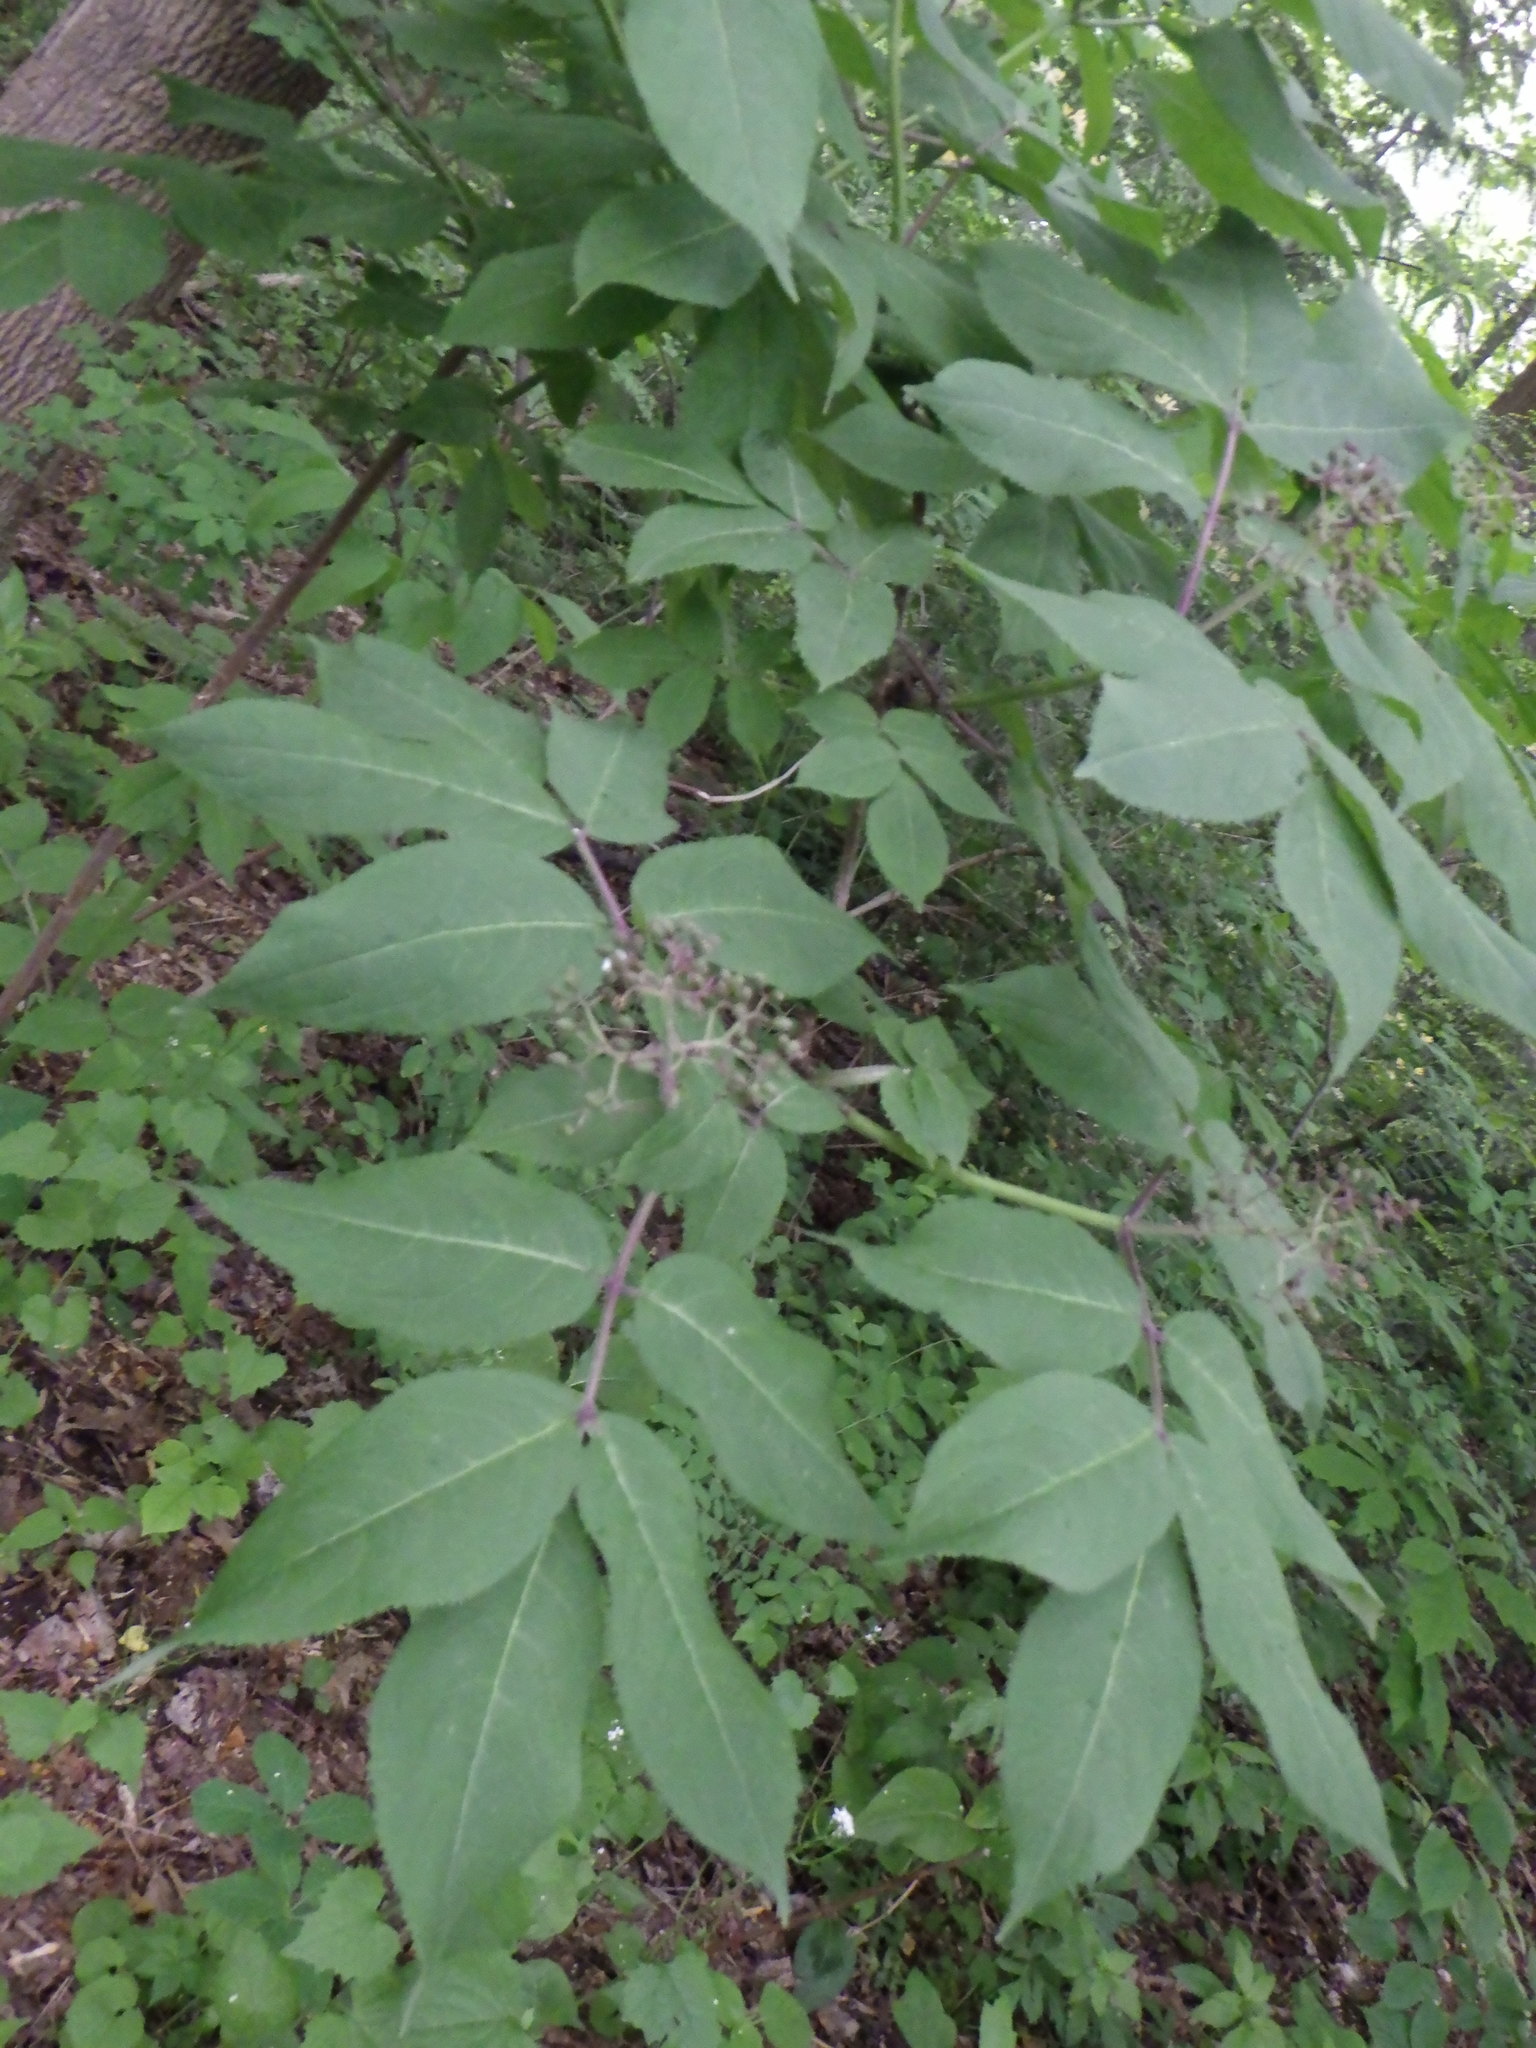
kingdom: Plantae
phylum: Tracheophyta
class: Magnoliopsida
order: Dipsacales
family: Viburnaceae
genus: Sambucus
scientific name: Sambucus racemosa
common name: Red-berried elder
